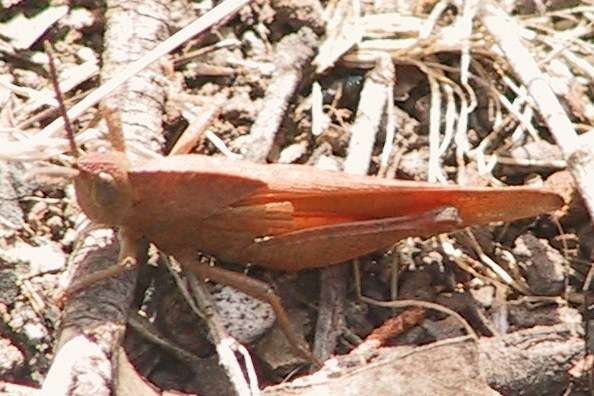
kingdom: Animalia
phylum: Arthropoda
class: Insecta
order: Orthoptera
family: Acrididae
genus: Goniaea
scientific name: Goniaea australasiae
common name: Gumleaf grasshopper
